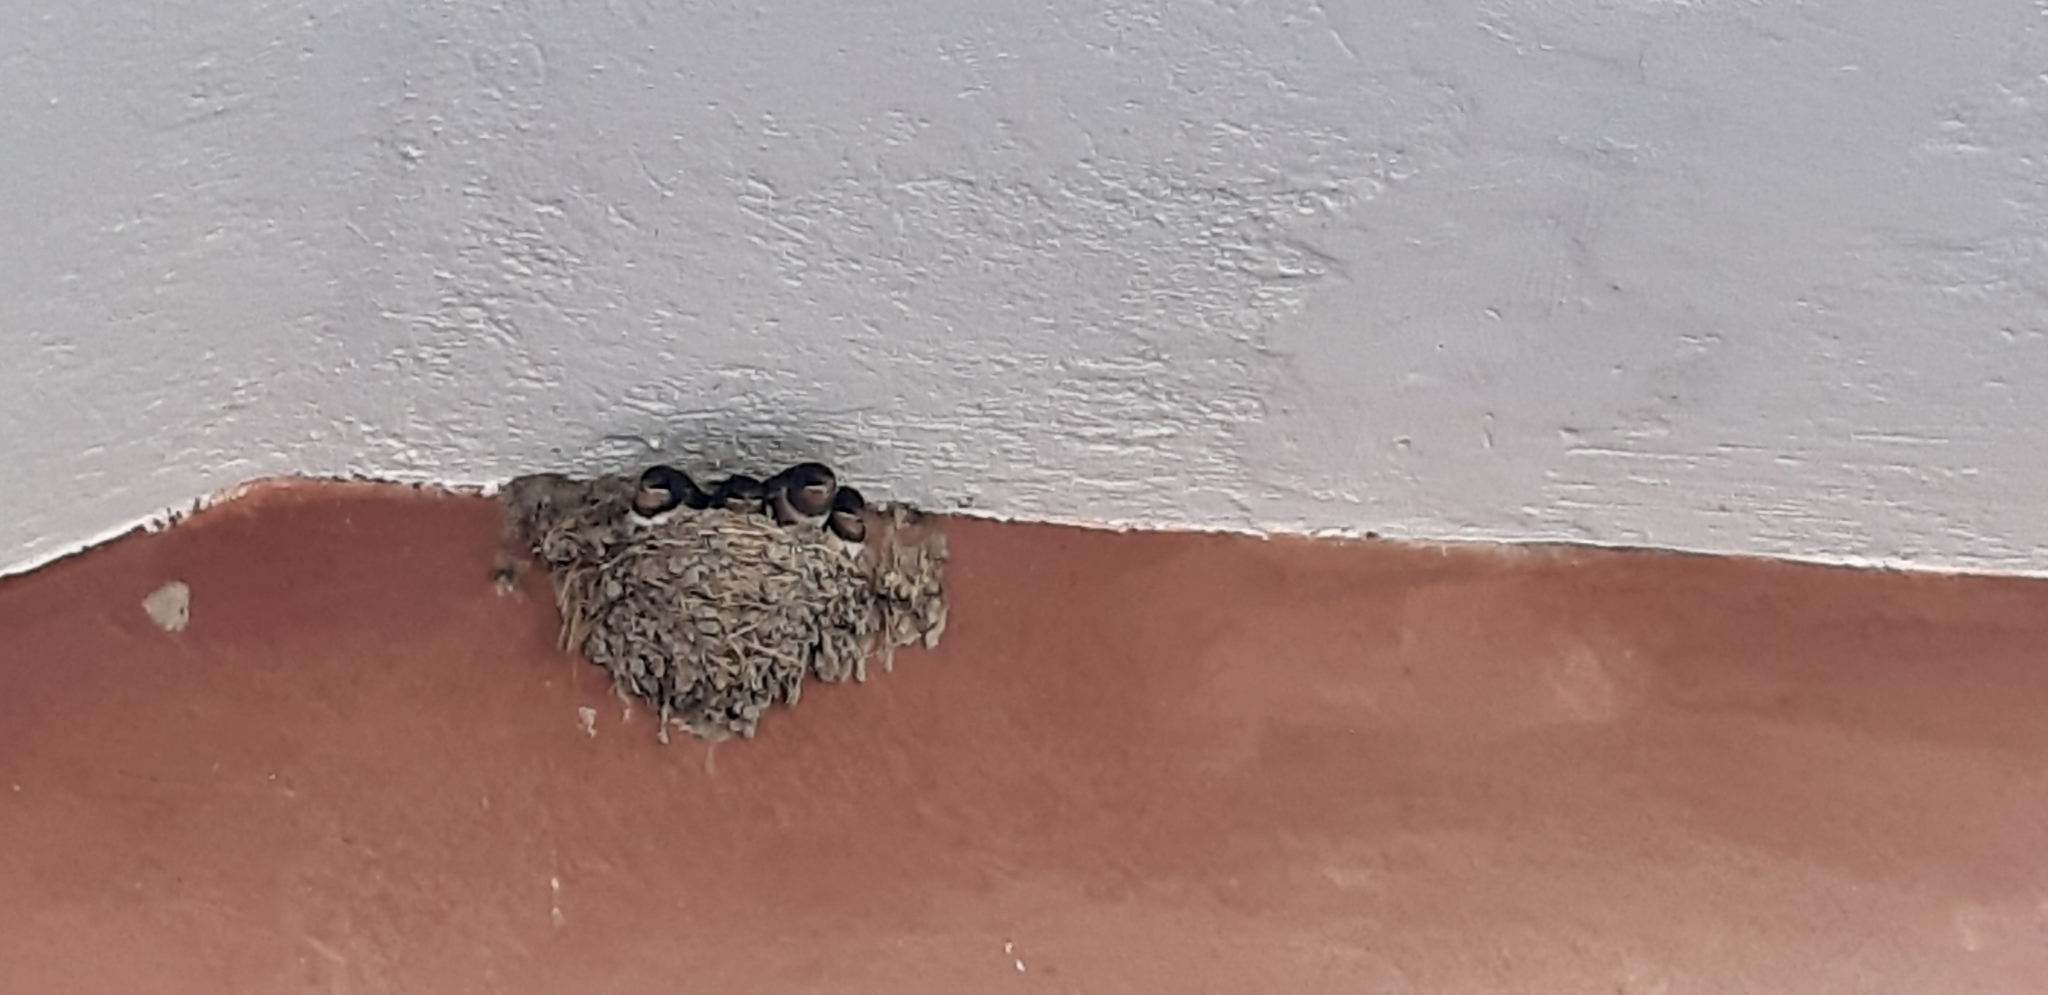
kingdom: Animalia
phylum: Chordata
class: Aves
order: Passeriformes
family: Hirundinidae
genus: Hirundo
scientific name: Hirundo rustica
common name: Barn swallow
